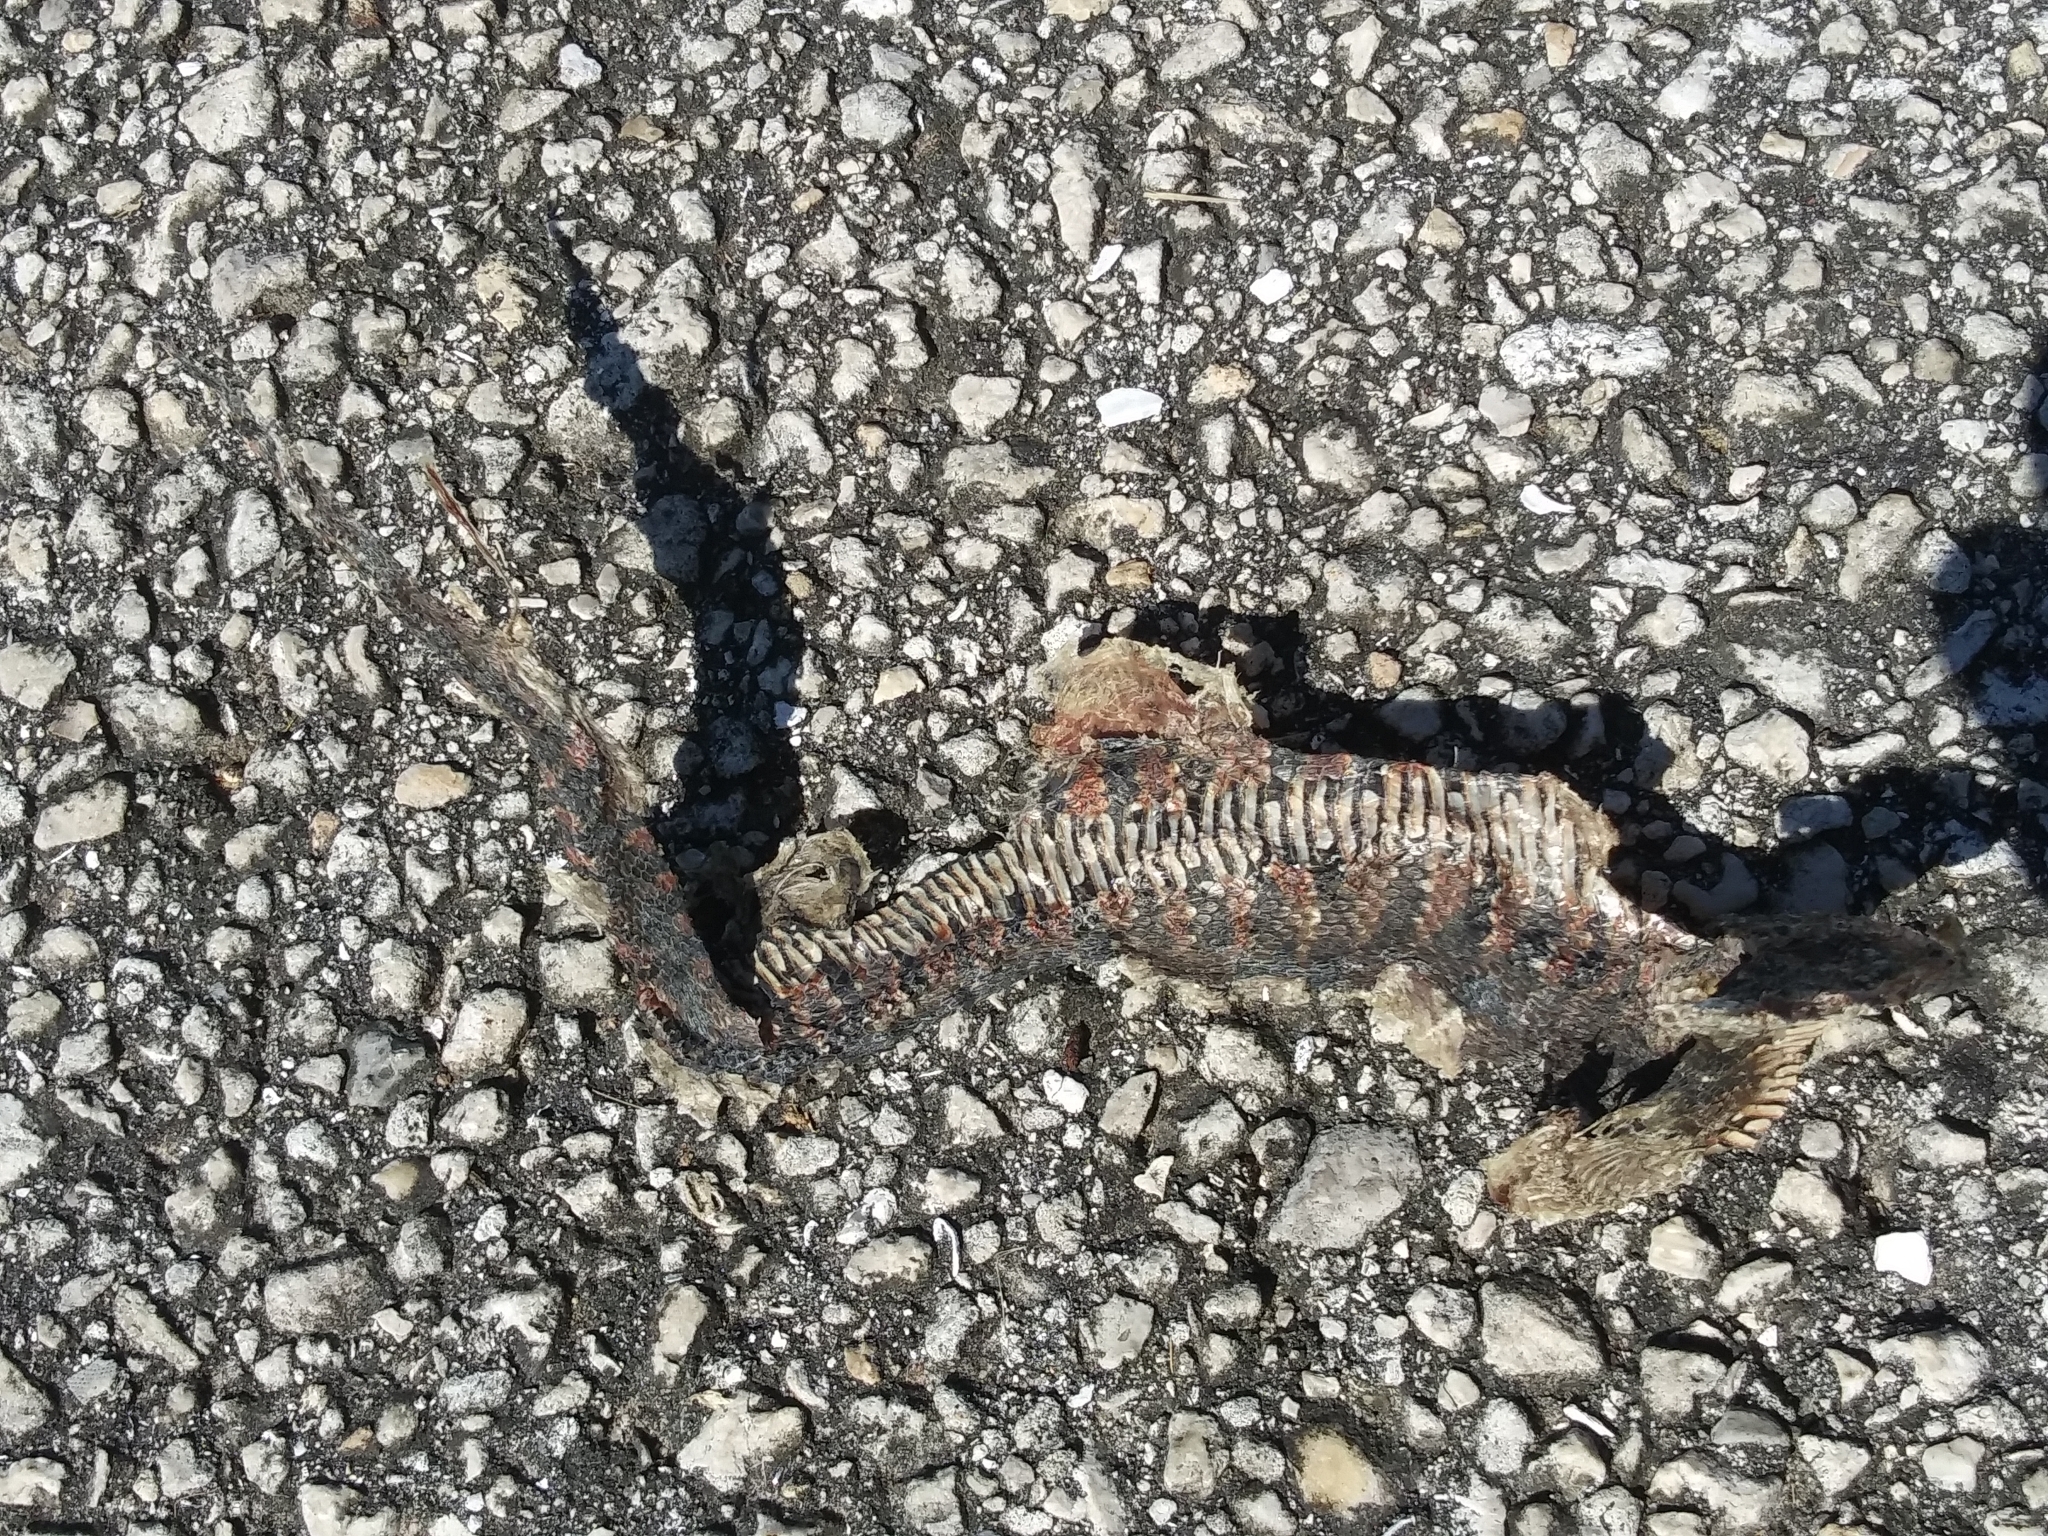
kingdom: Animalia
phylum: Chordata
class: Squamata
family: Colubridae
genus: Nerodia
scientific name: Nerodia fasciata
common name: Southern water snake
